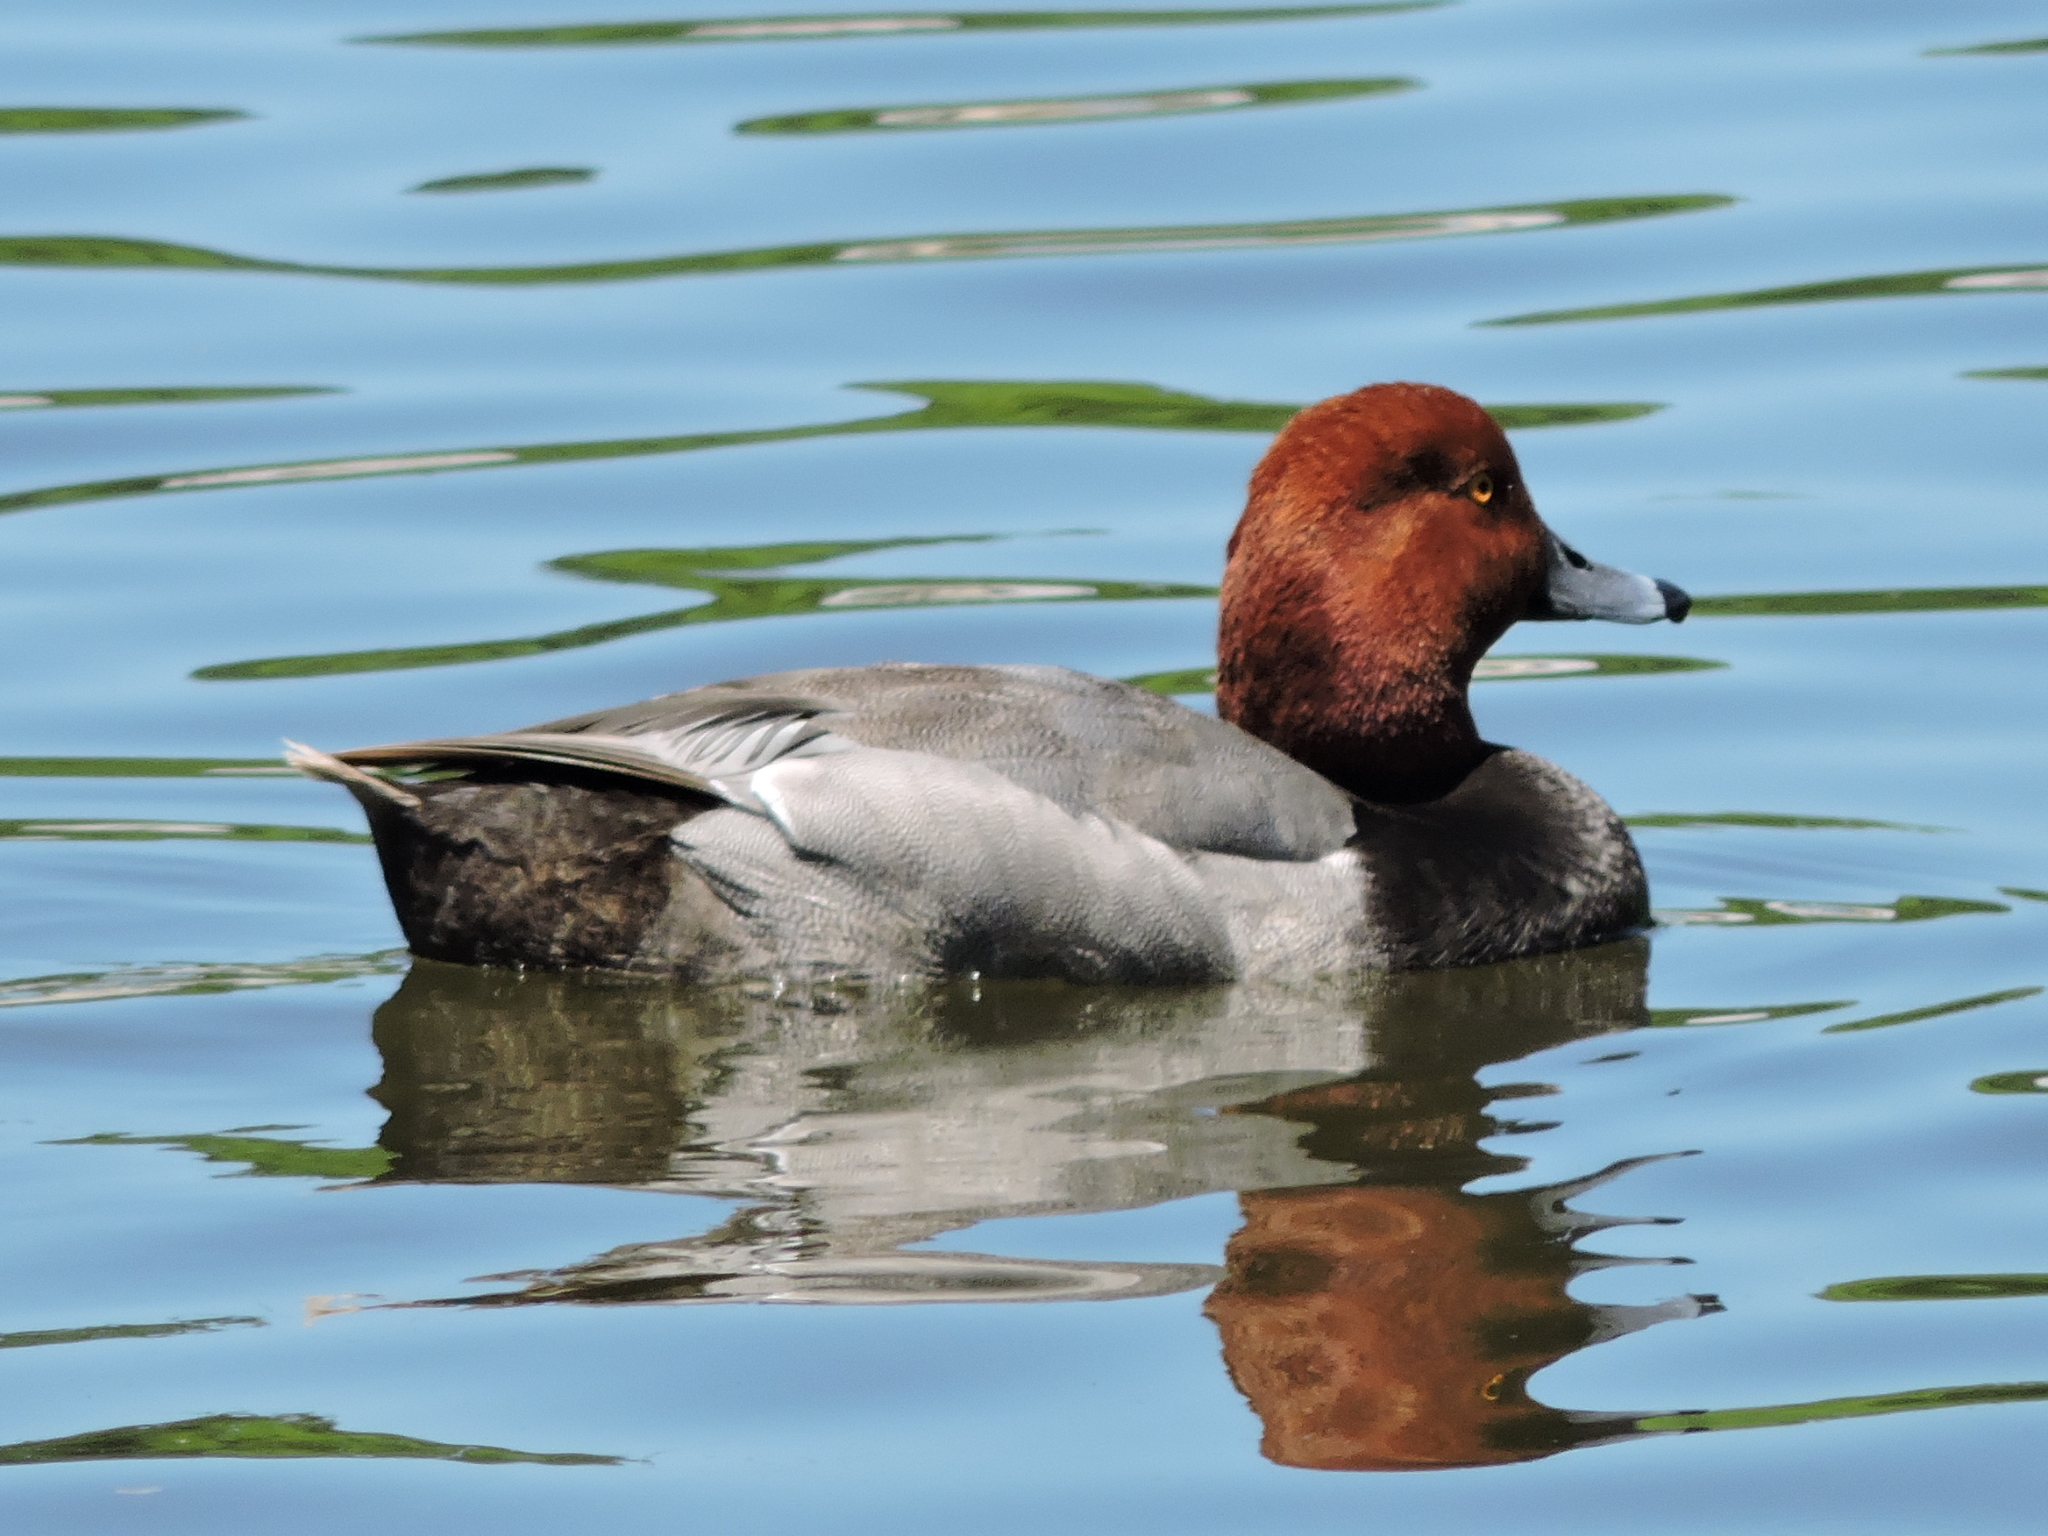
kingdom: Animalia
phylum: Chordata
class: Aves
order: Anseriformes
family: Anatidae
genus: Aythya
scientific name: Aythya americana
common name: Redhead
